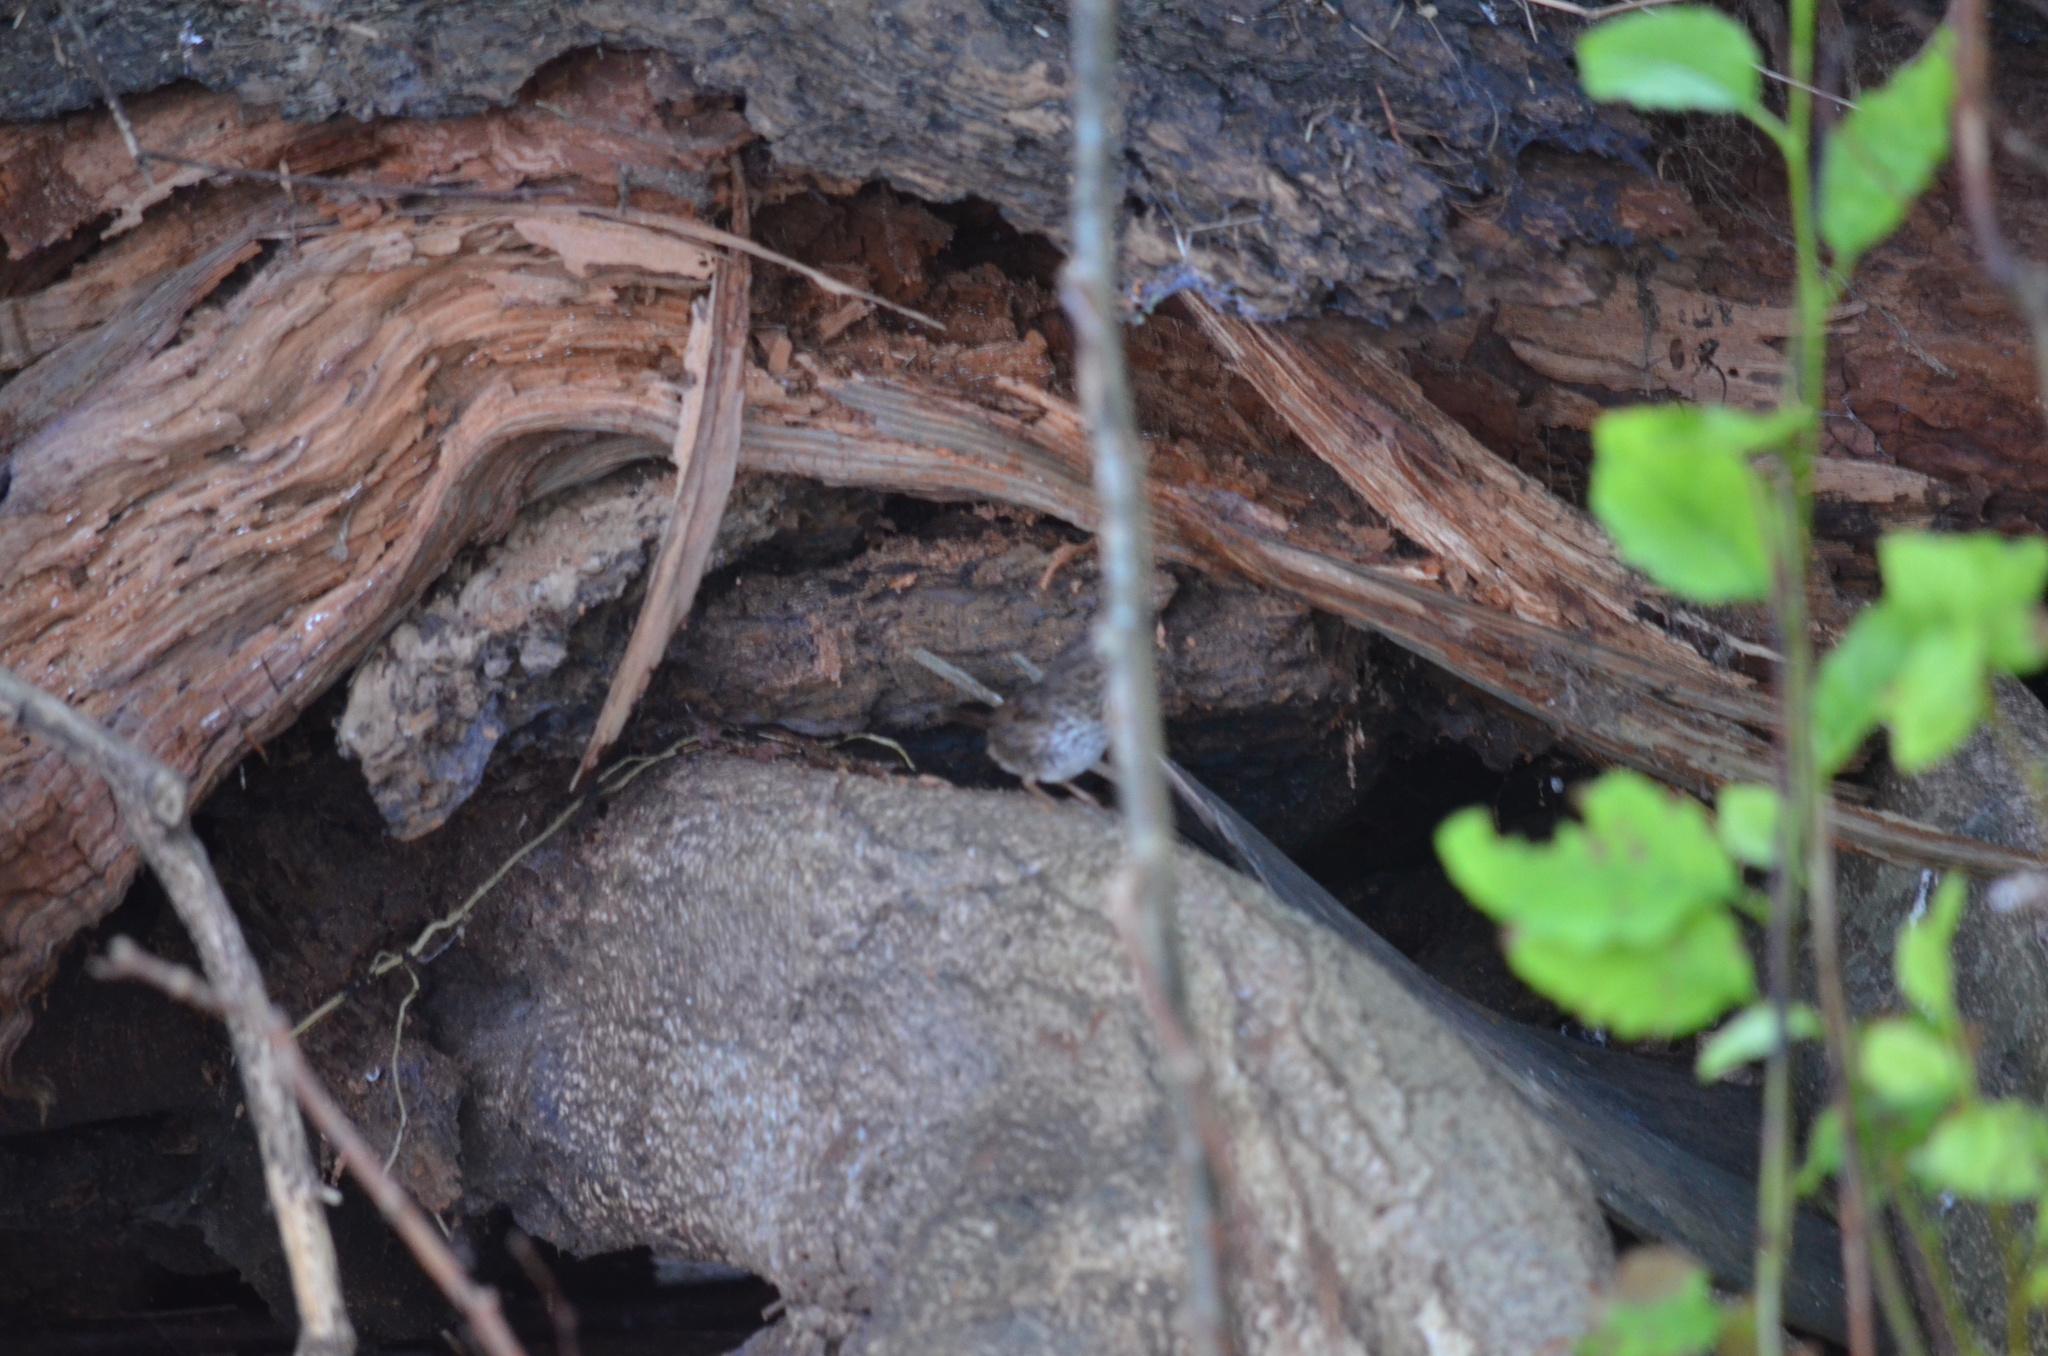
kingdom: Animalia
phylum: Chordata
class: Aves
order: Passeriformes
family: Passerellidae
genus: Melospiza
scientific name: Melospiza melodia
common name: Song sparrow
